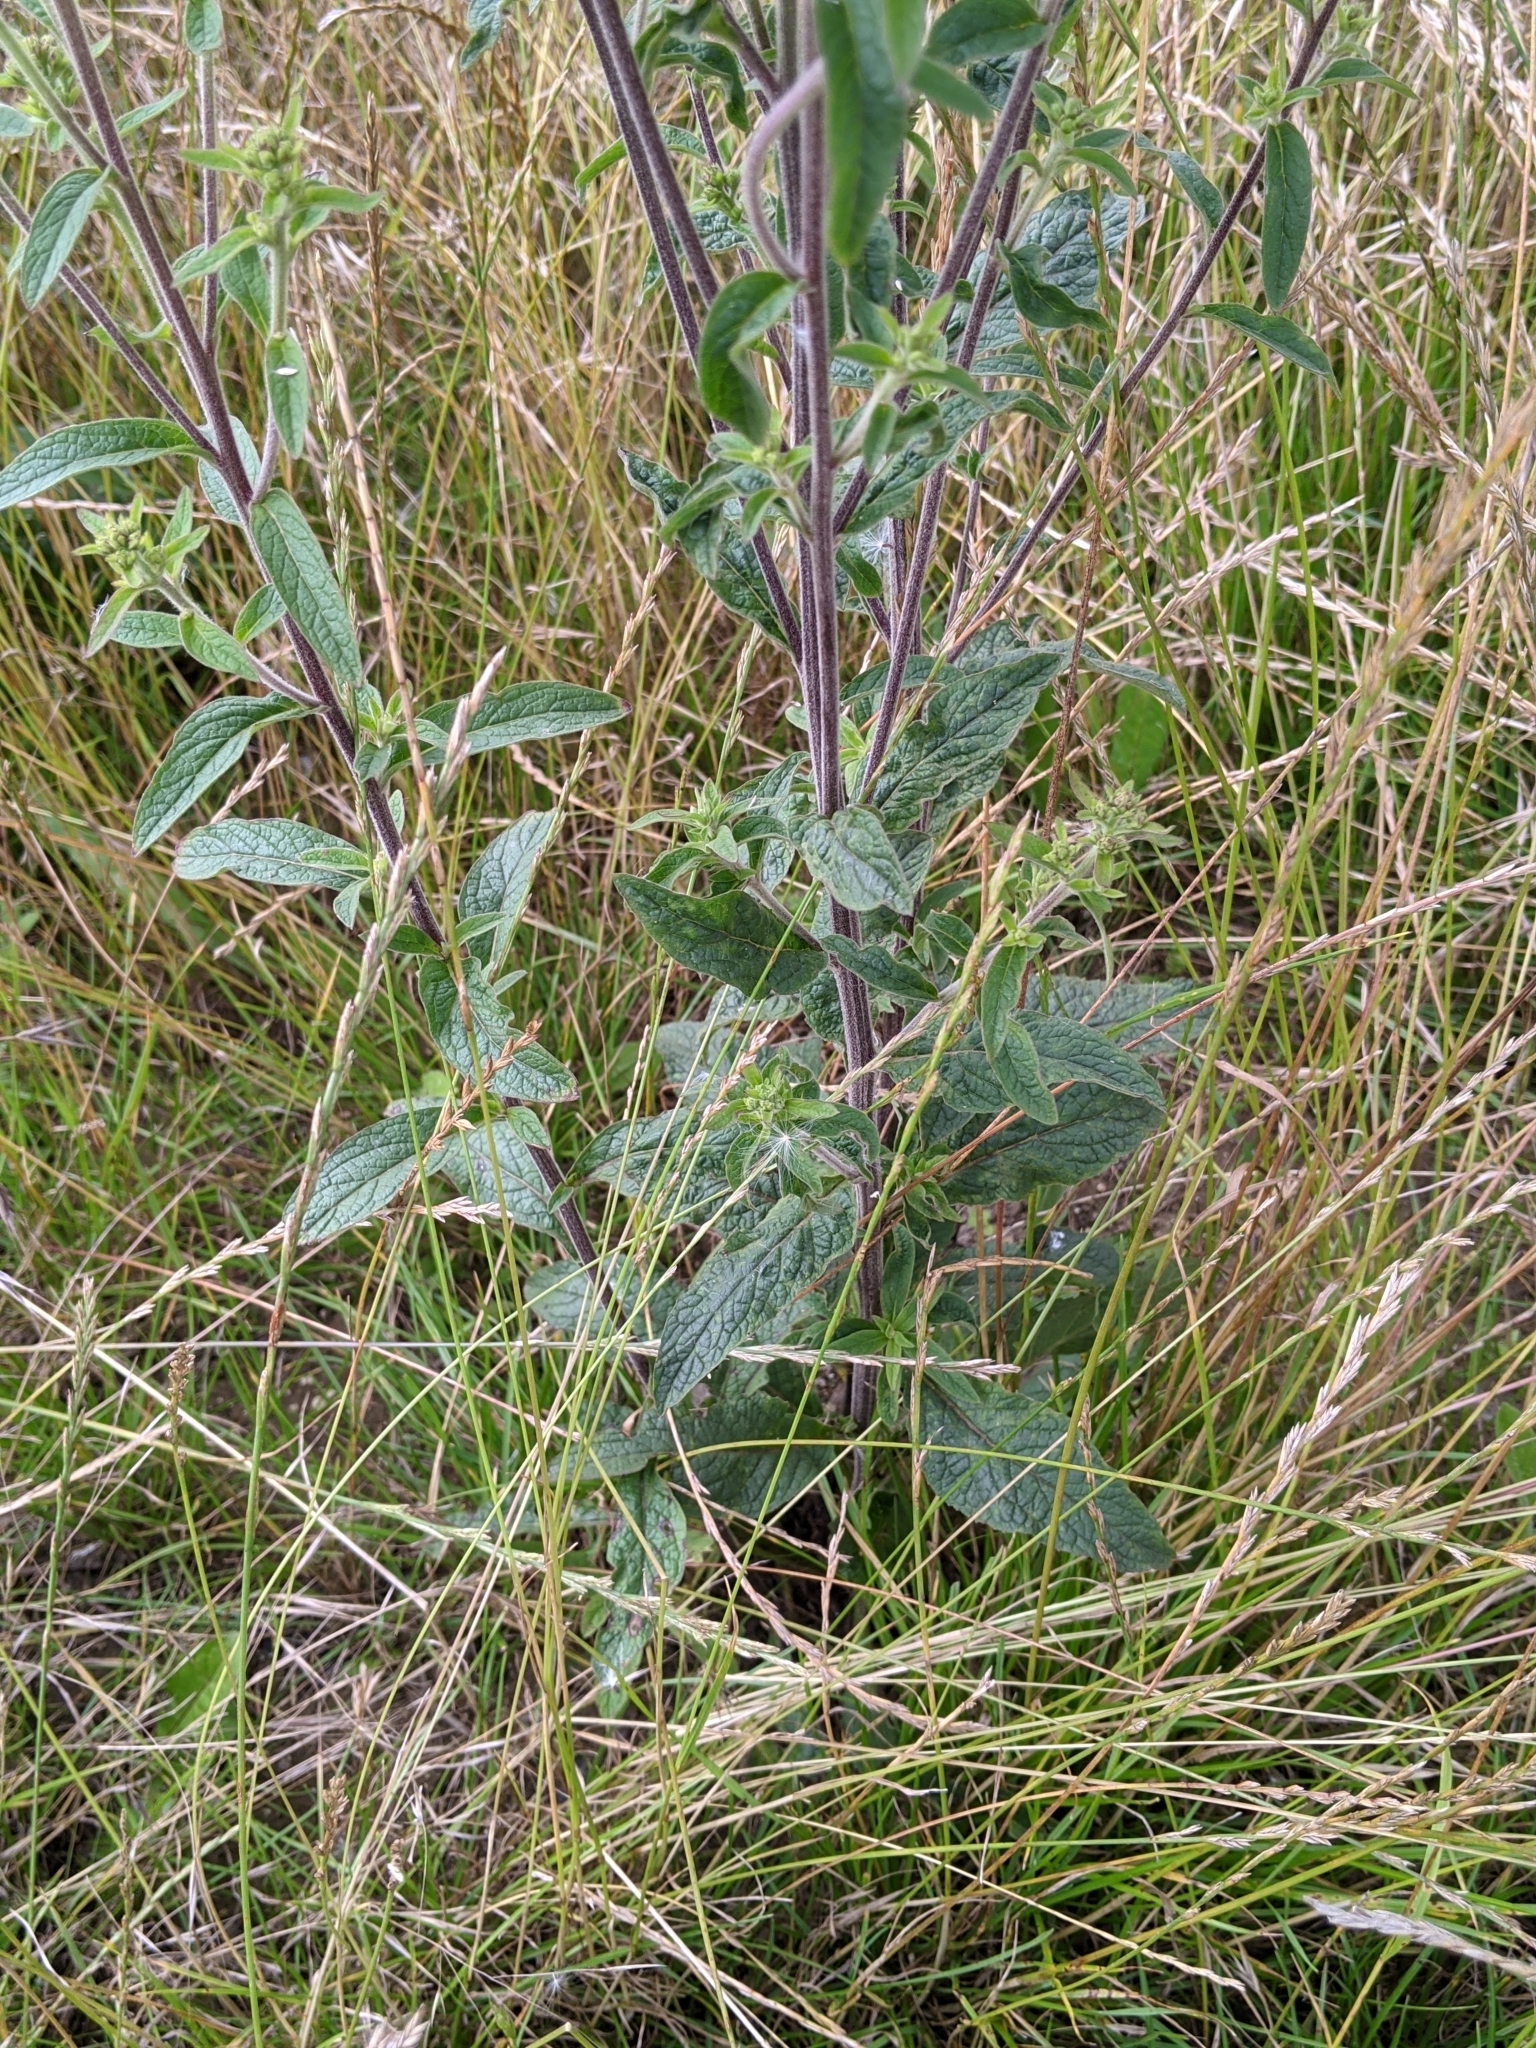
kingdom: Plantae
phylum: Tracheophyta
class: Magnoliopsida
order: Asterales
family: Asteraceae
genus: Pentanema
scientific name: Pentanema squarrosum
